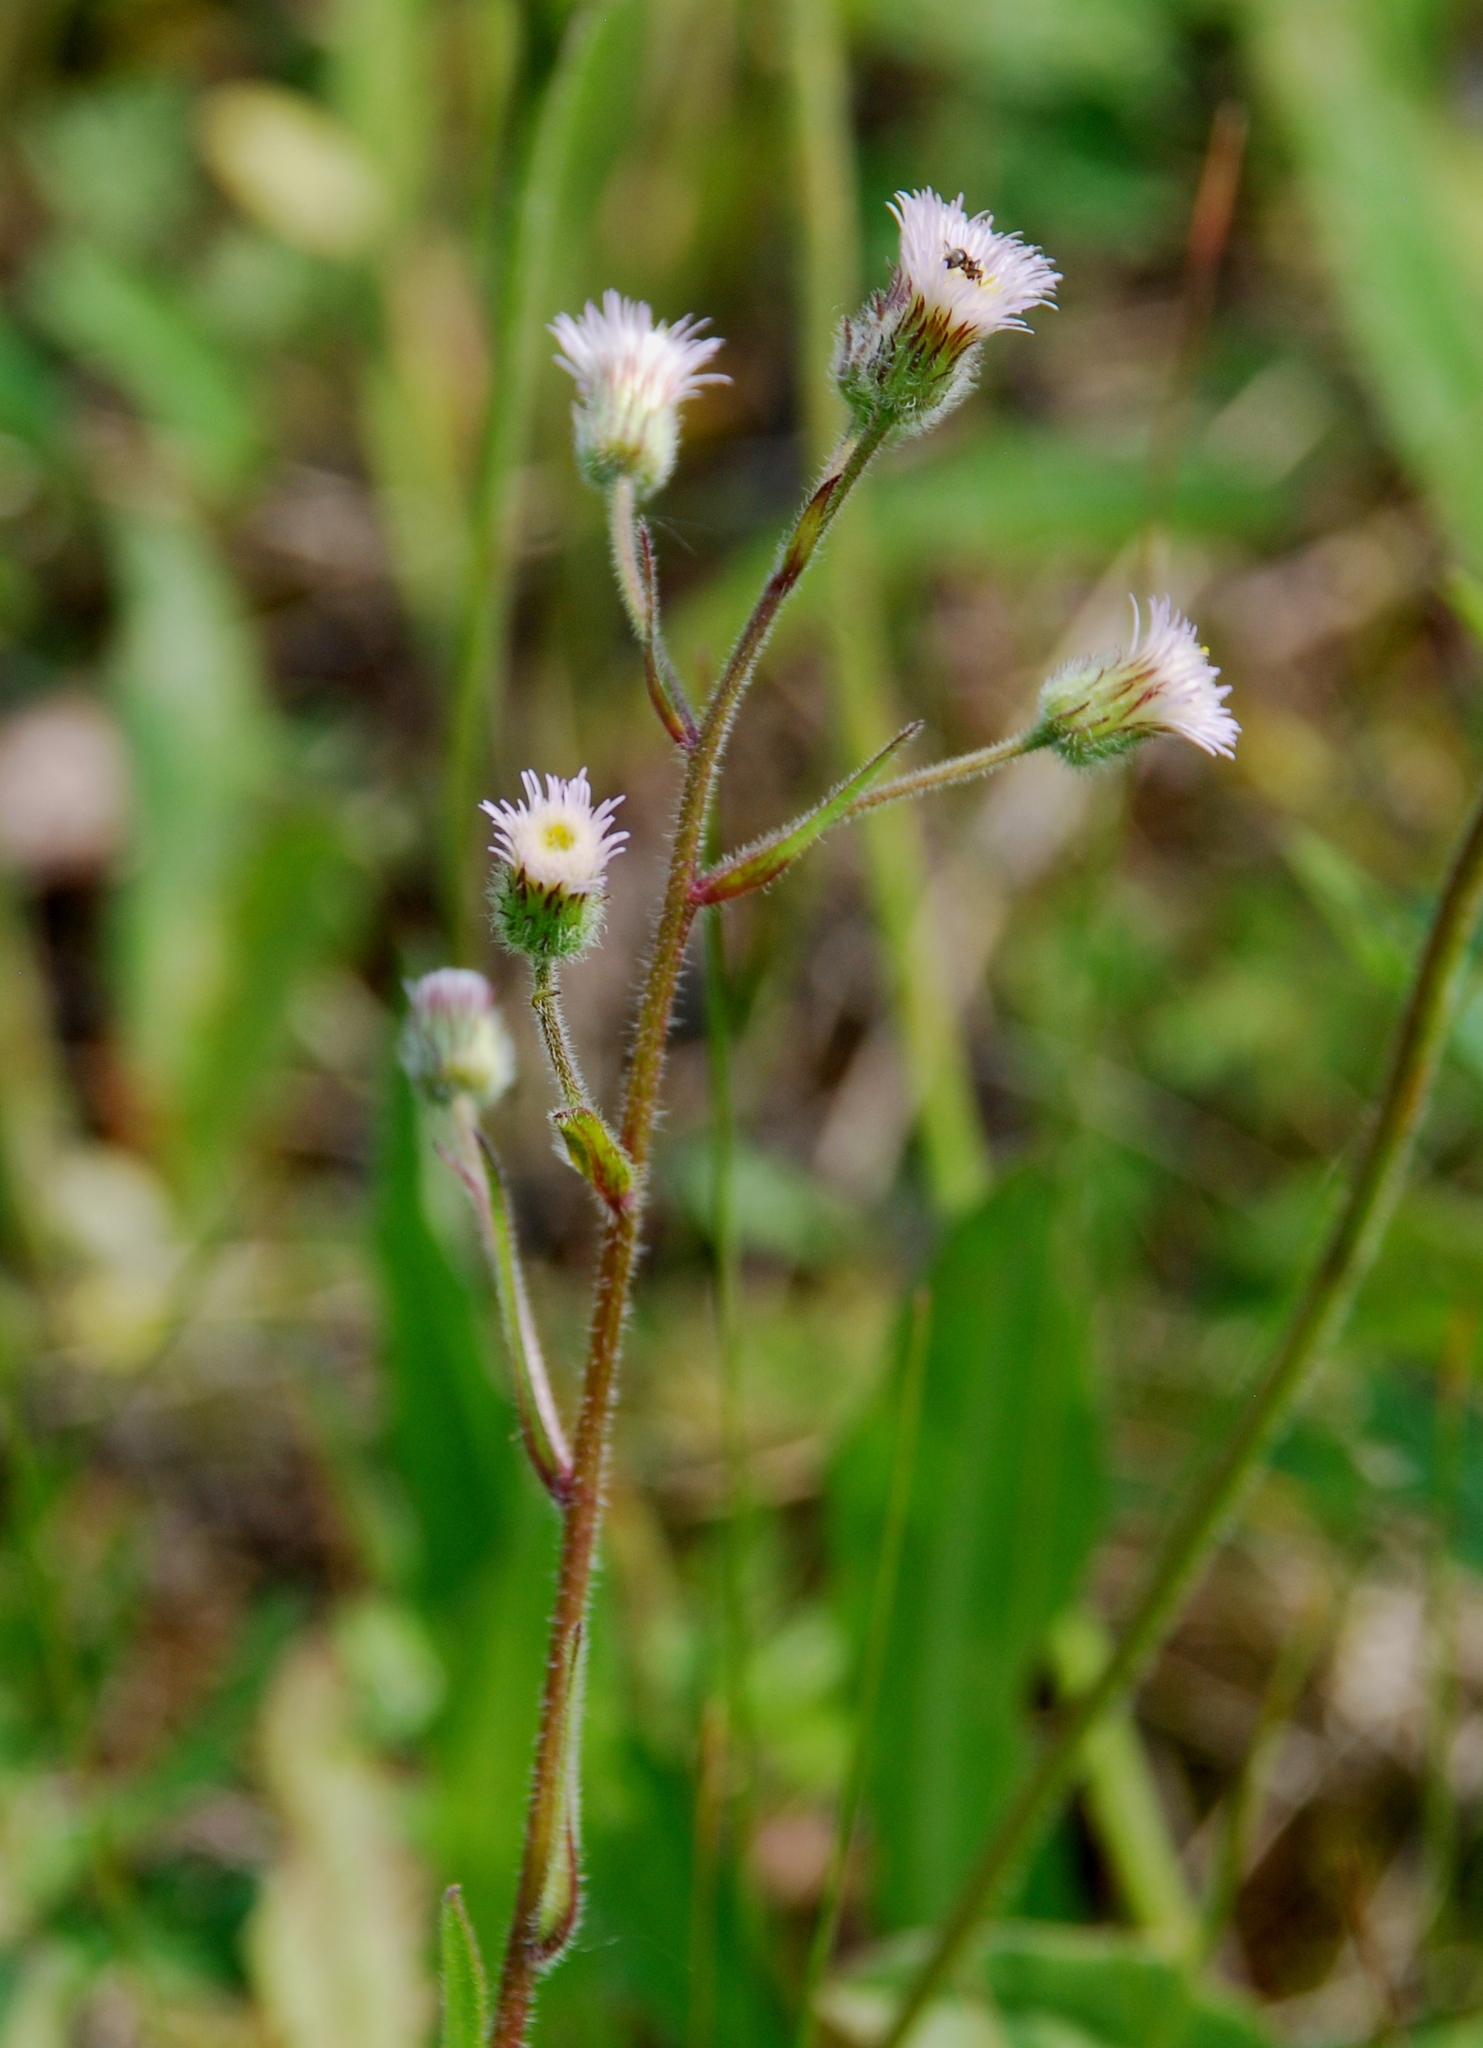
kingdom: Plantae
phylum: Tracheophyta
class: Magnoliopsida
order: Asterales
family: Asteraceae
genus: Erigeron
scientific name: Erigeron acris
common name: Blue fleabane
